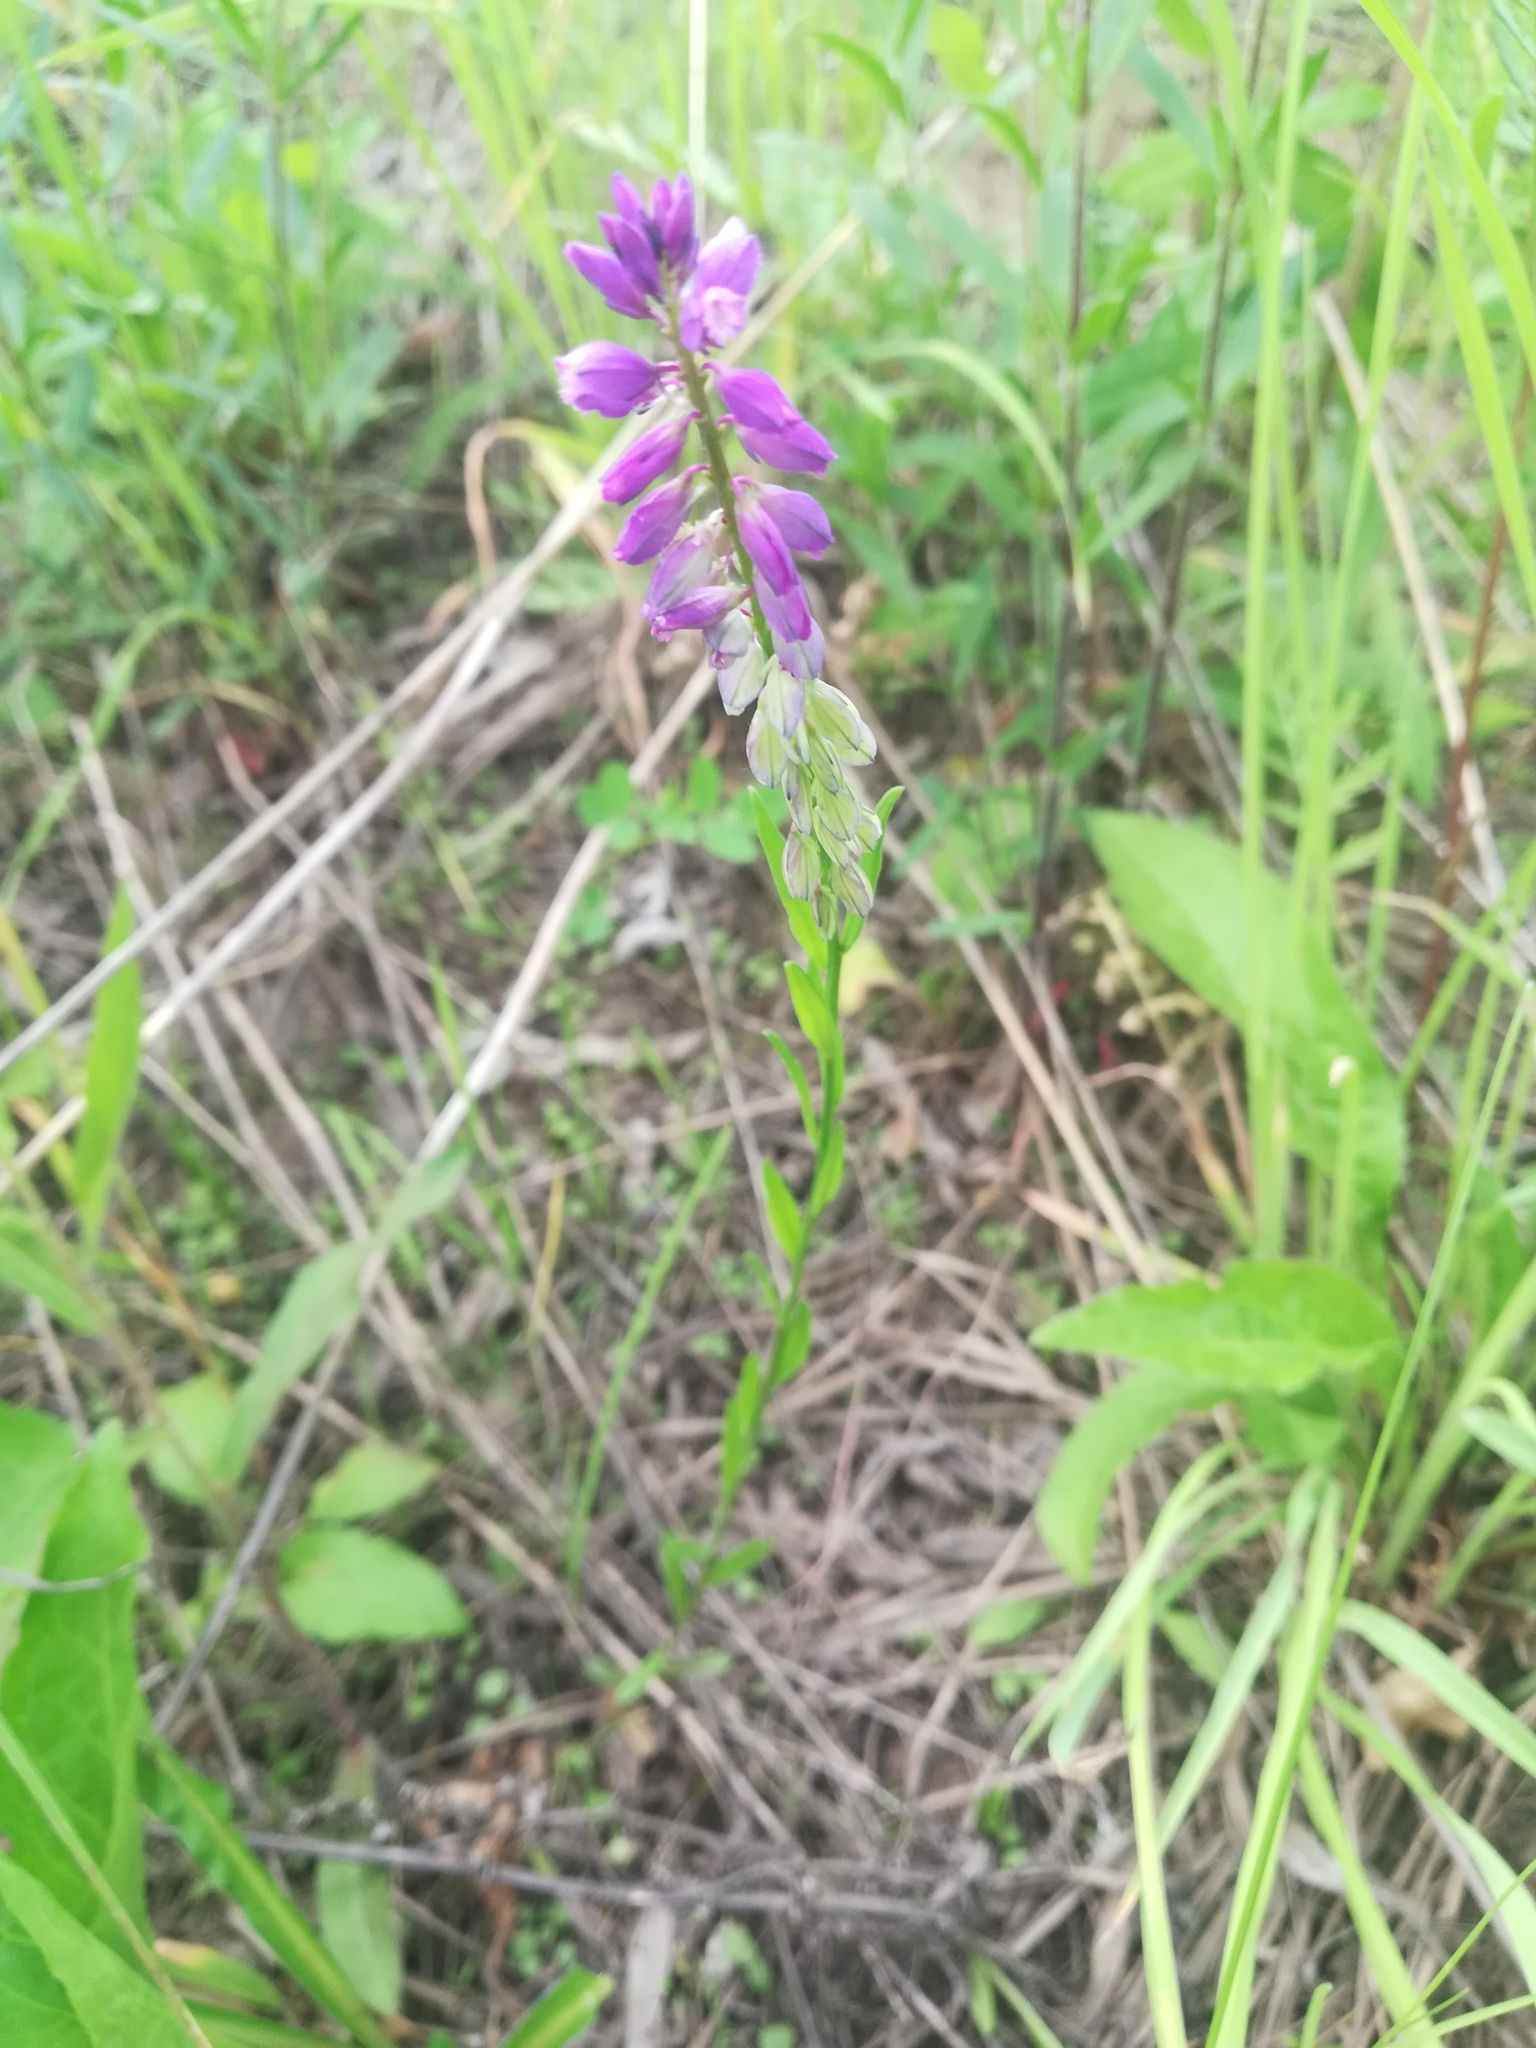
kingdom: Plantae
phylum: Tracheophyta
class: Magnoliopsida
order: Fabales
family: Polygalaceae
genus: Polygala
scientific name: Polygala comosa
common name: Tufted milkwort
